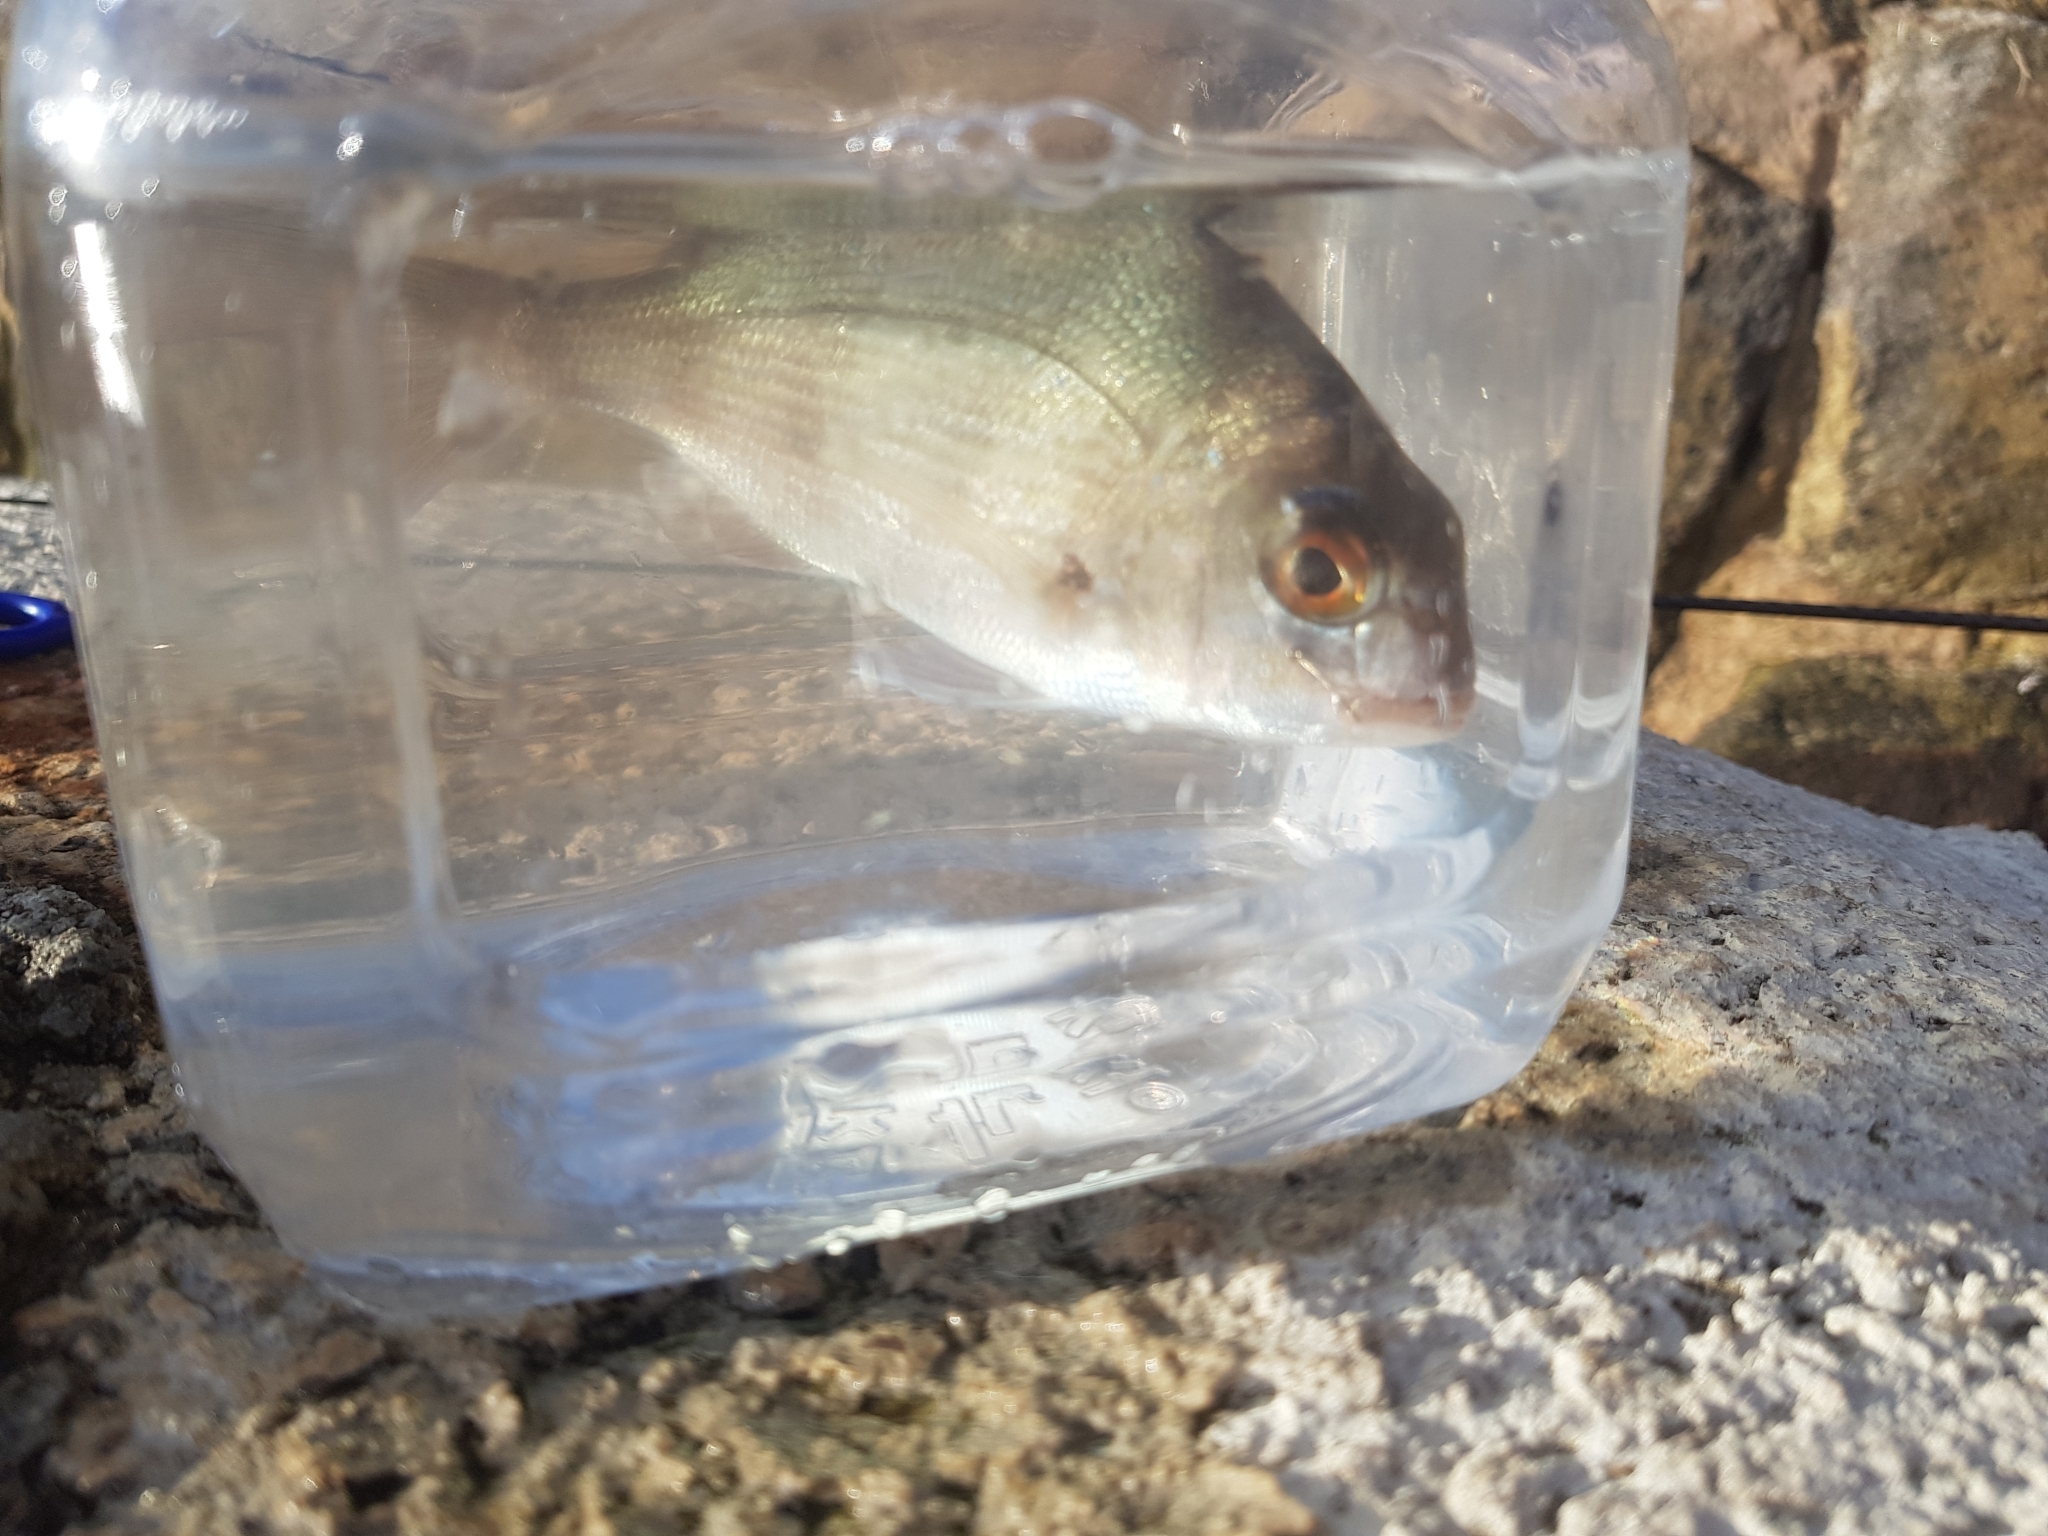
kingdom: Animalia
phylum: Chordata
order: Perciformes
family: Sparidae
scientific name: Sparidae
